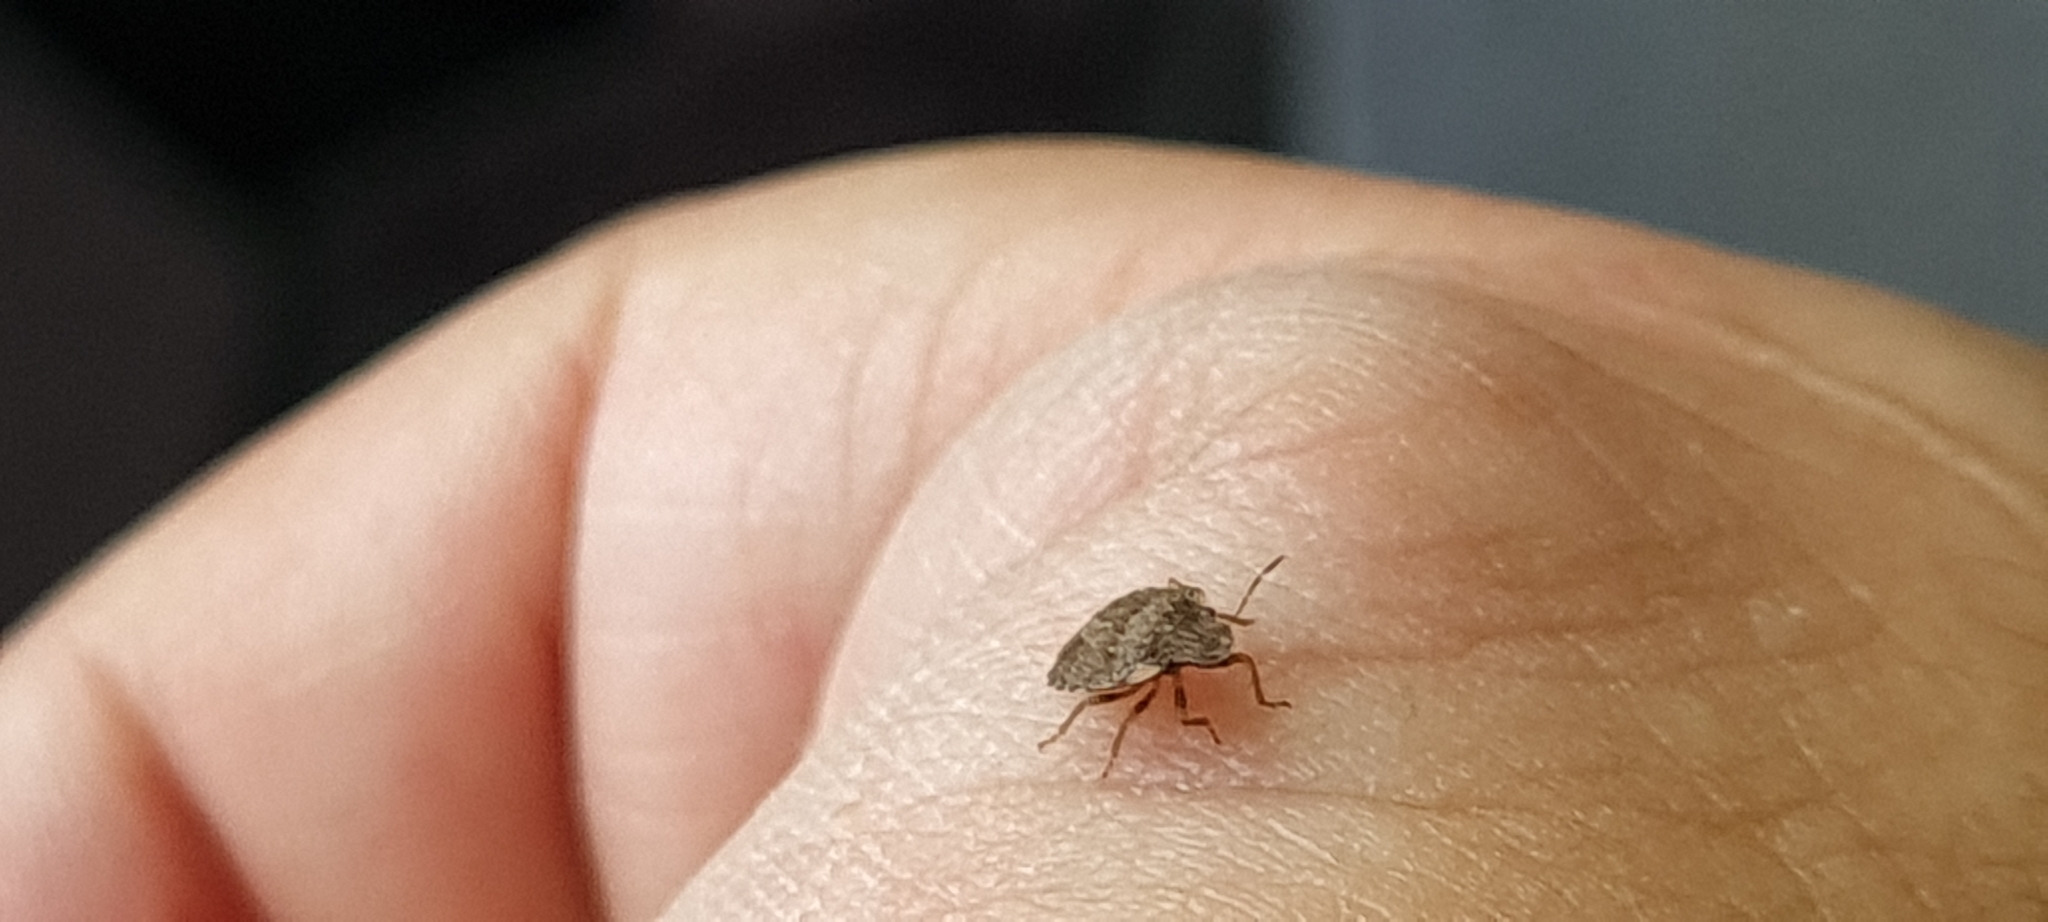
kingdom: Animalia
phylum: Arthropoda
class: Insecta
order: Hemiptera
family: Pentatomidae
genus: Sciocoris
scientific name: Sciocoris sideritidis
